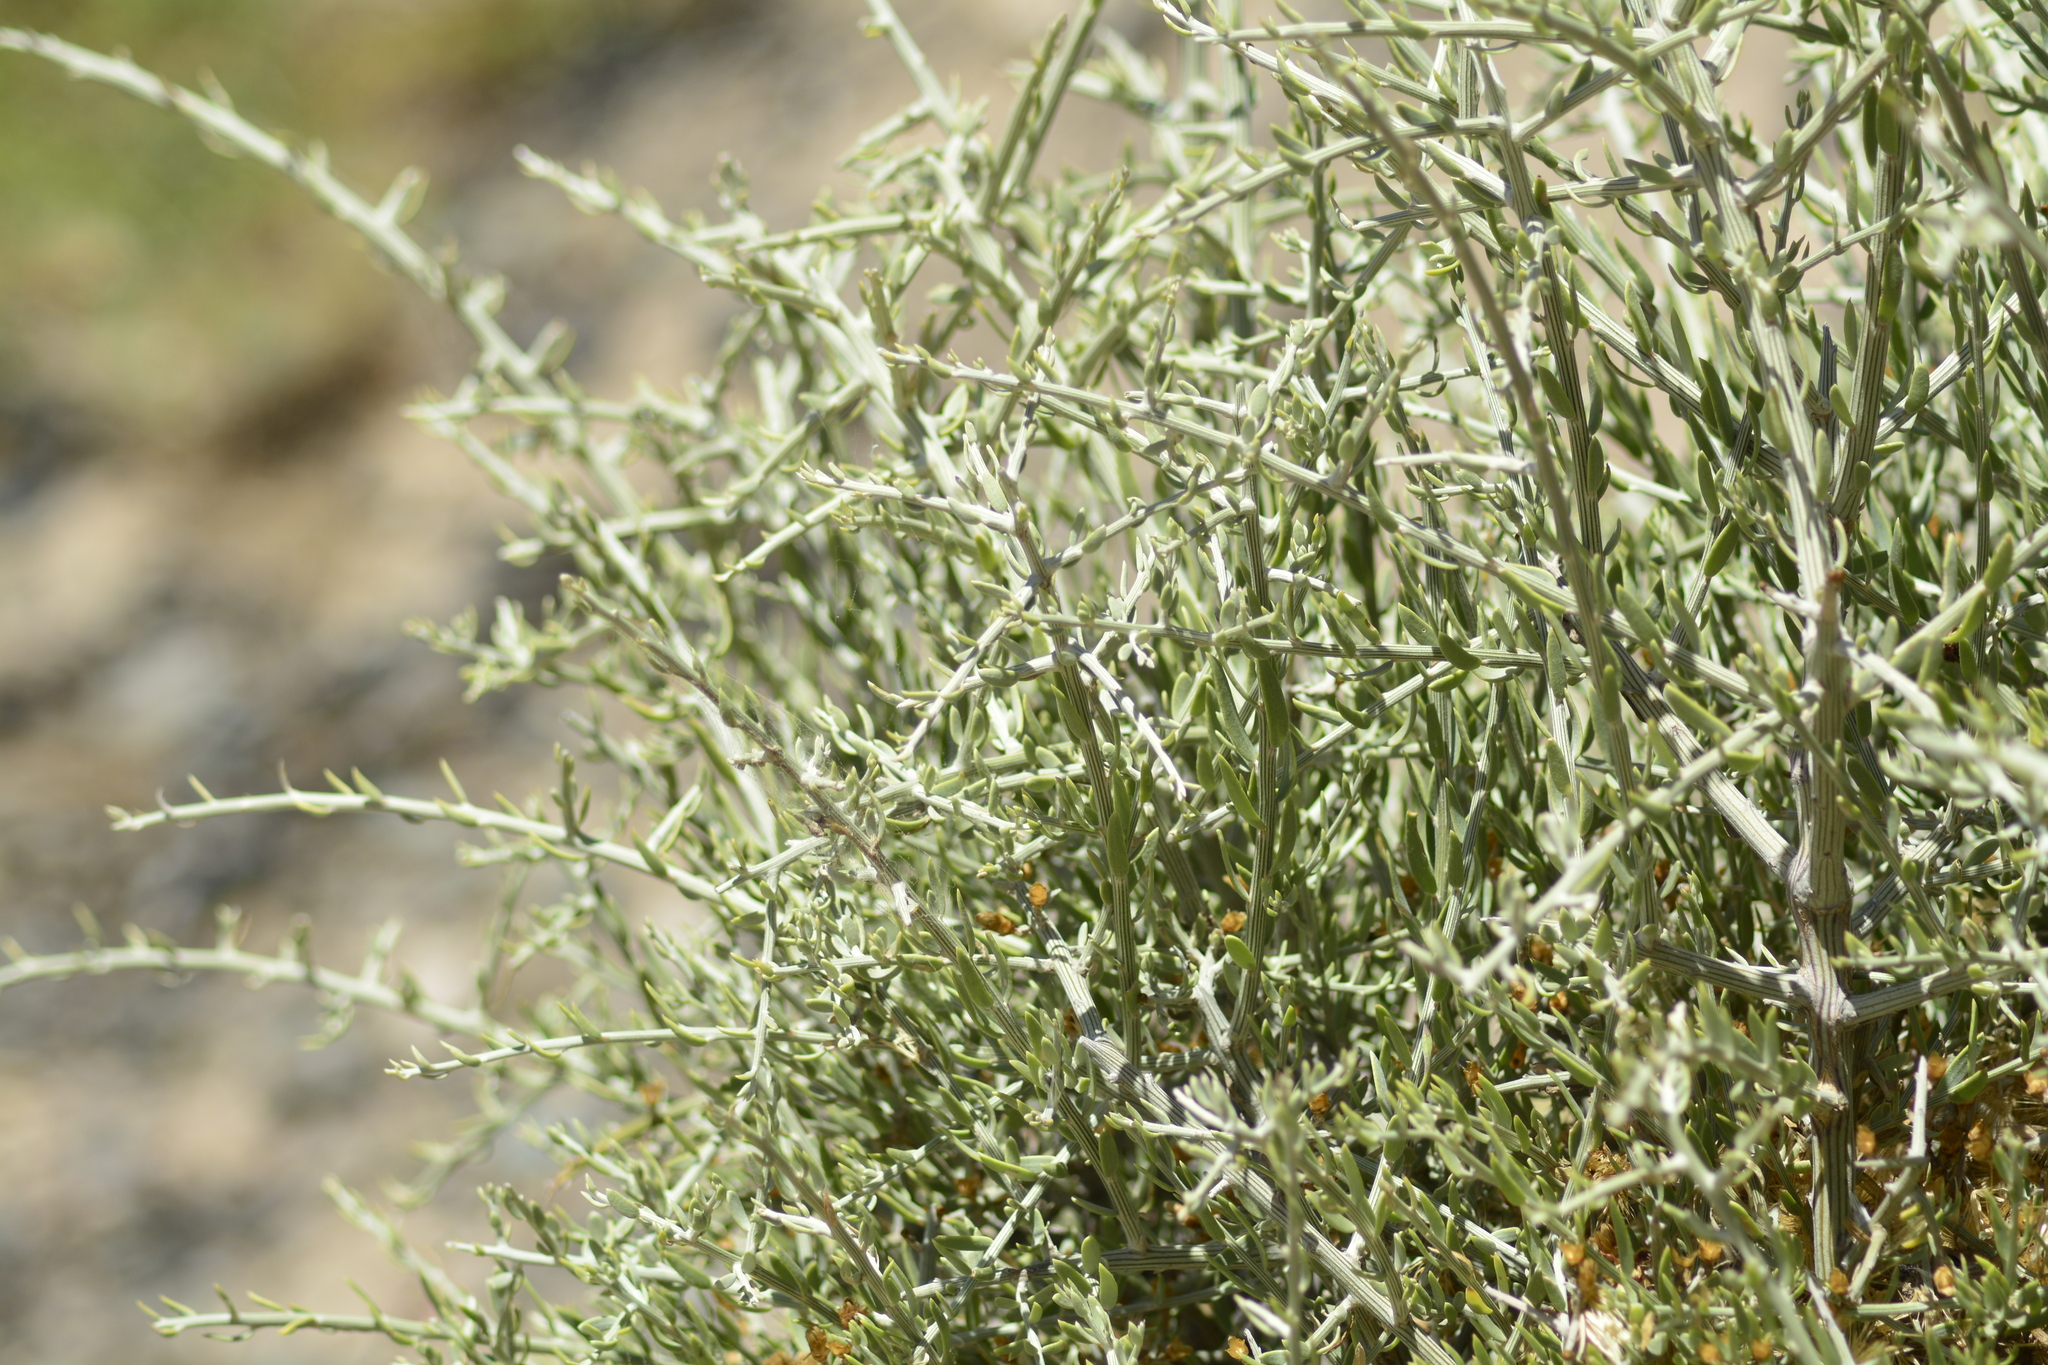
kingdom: Plantae
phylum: Tracheophyta
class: Magnoliopsida
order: Asterales
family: Asteraceae
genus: Cyclolepis
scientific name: Cyclolepis genistoides
